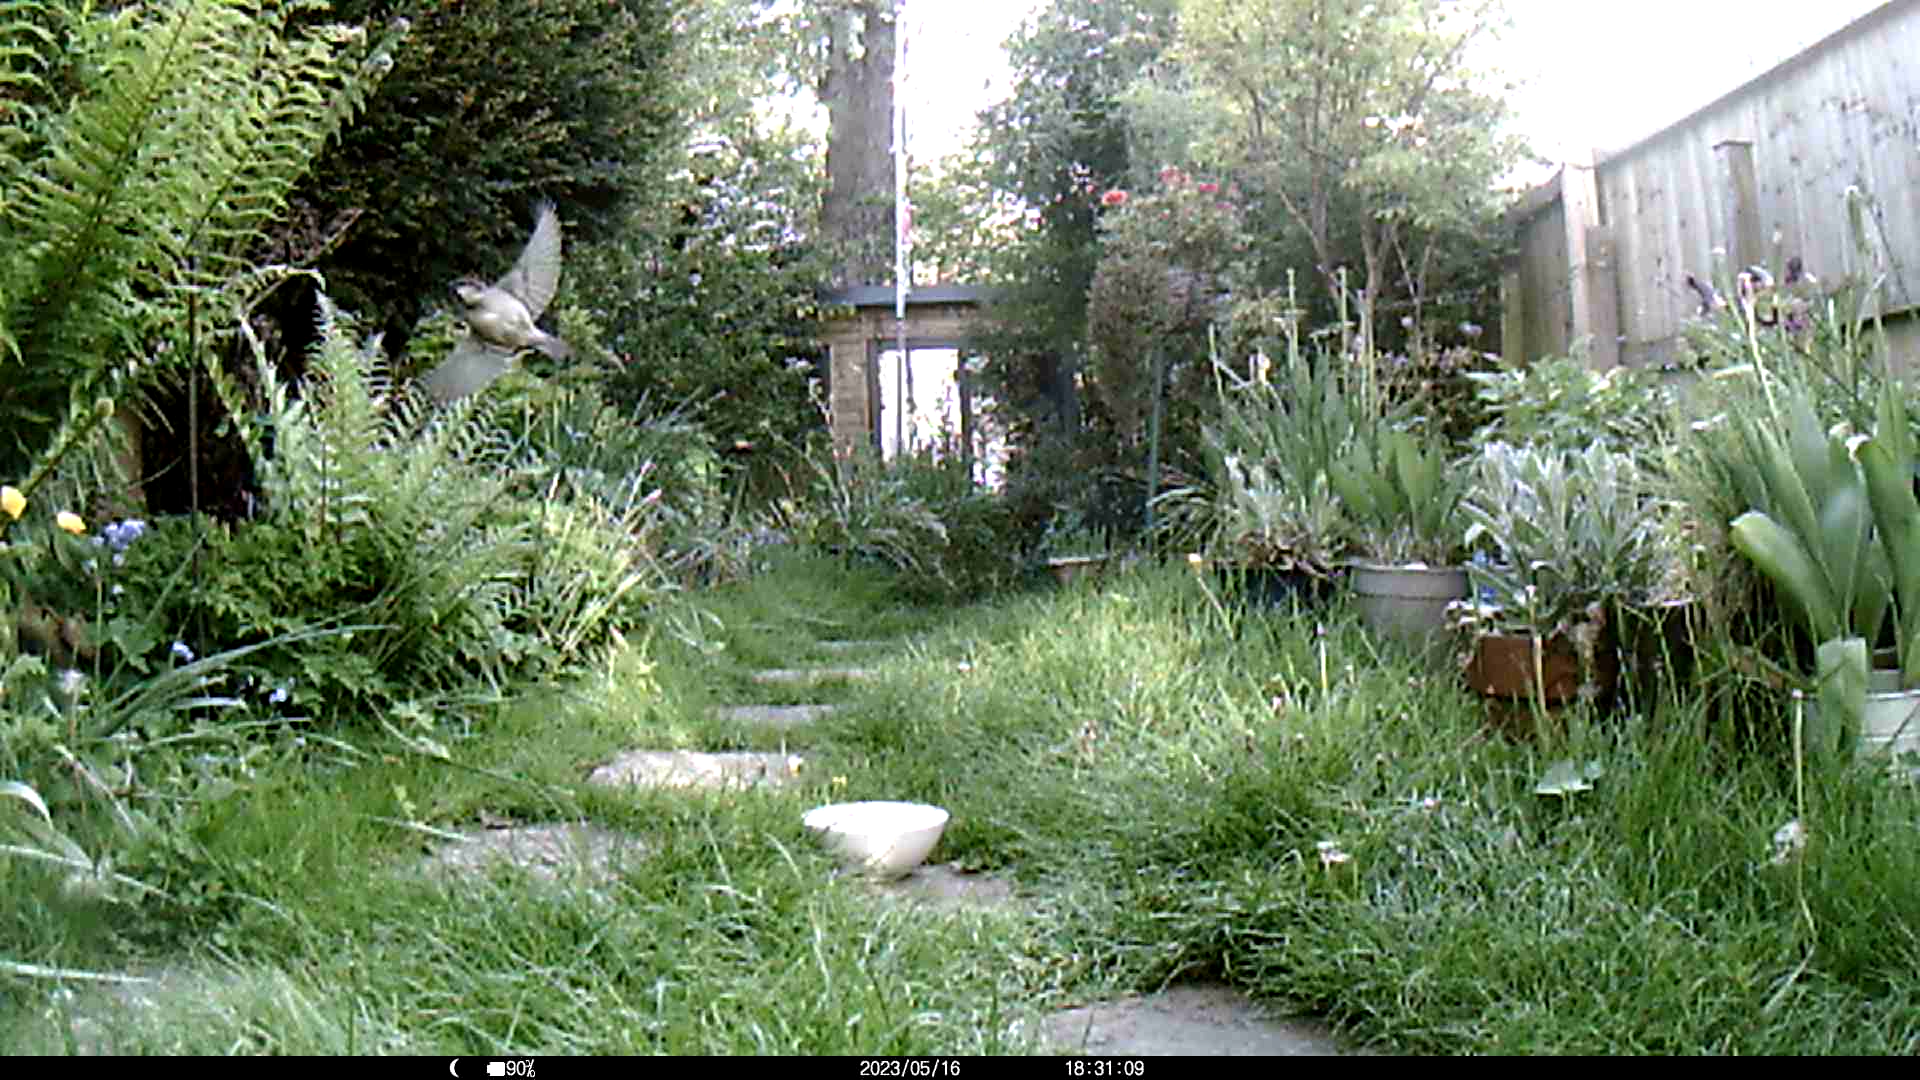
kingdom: Animalia
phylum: Chordata
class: Aves
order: Passeriformes
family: Passeridae
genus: Passer
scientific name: Passer domesticus
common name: House sparrow
